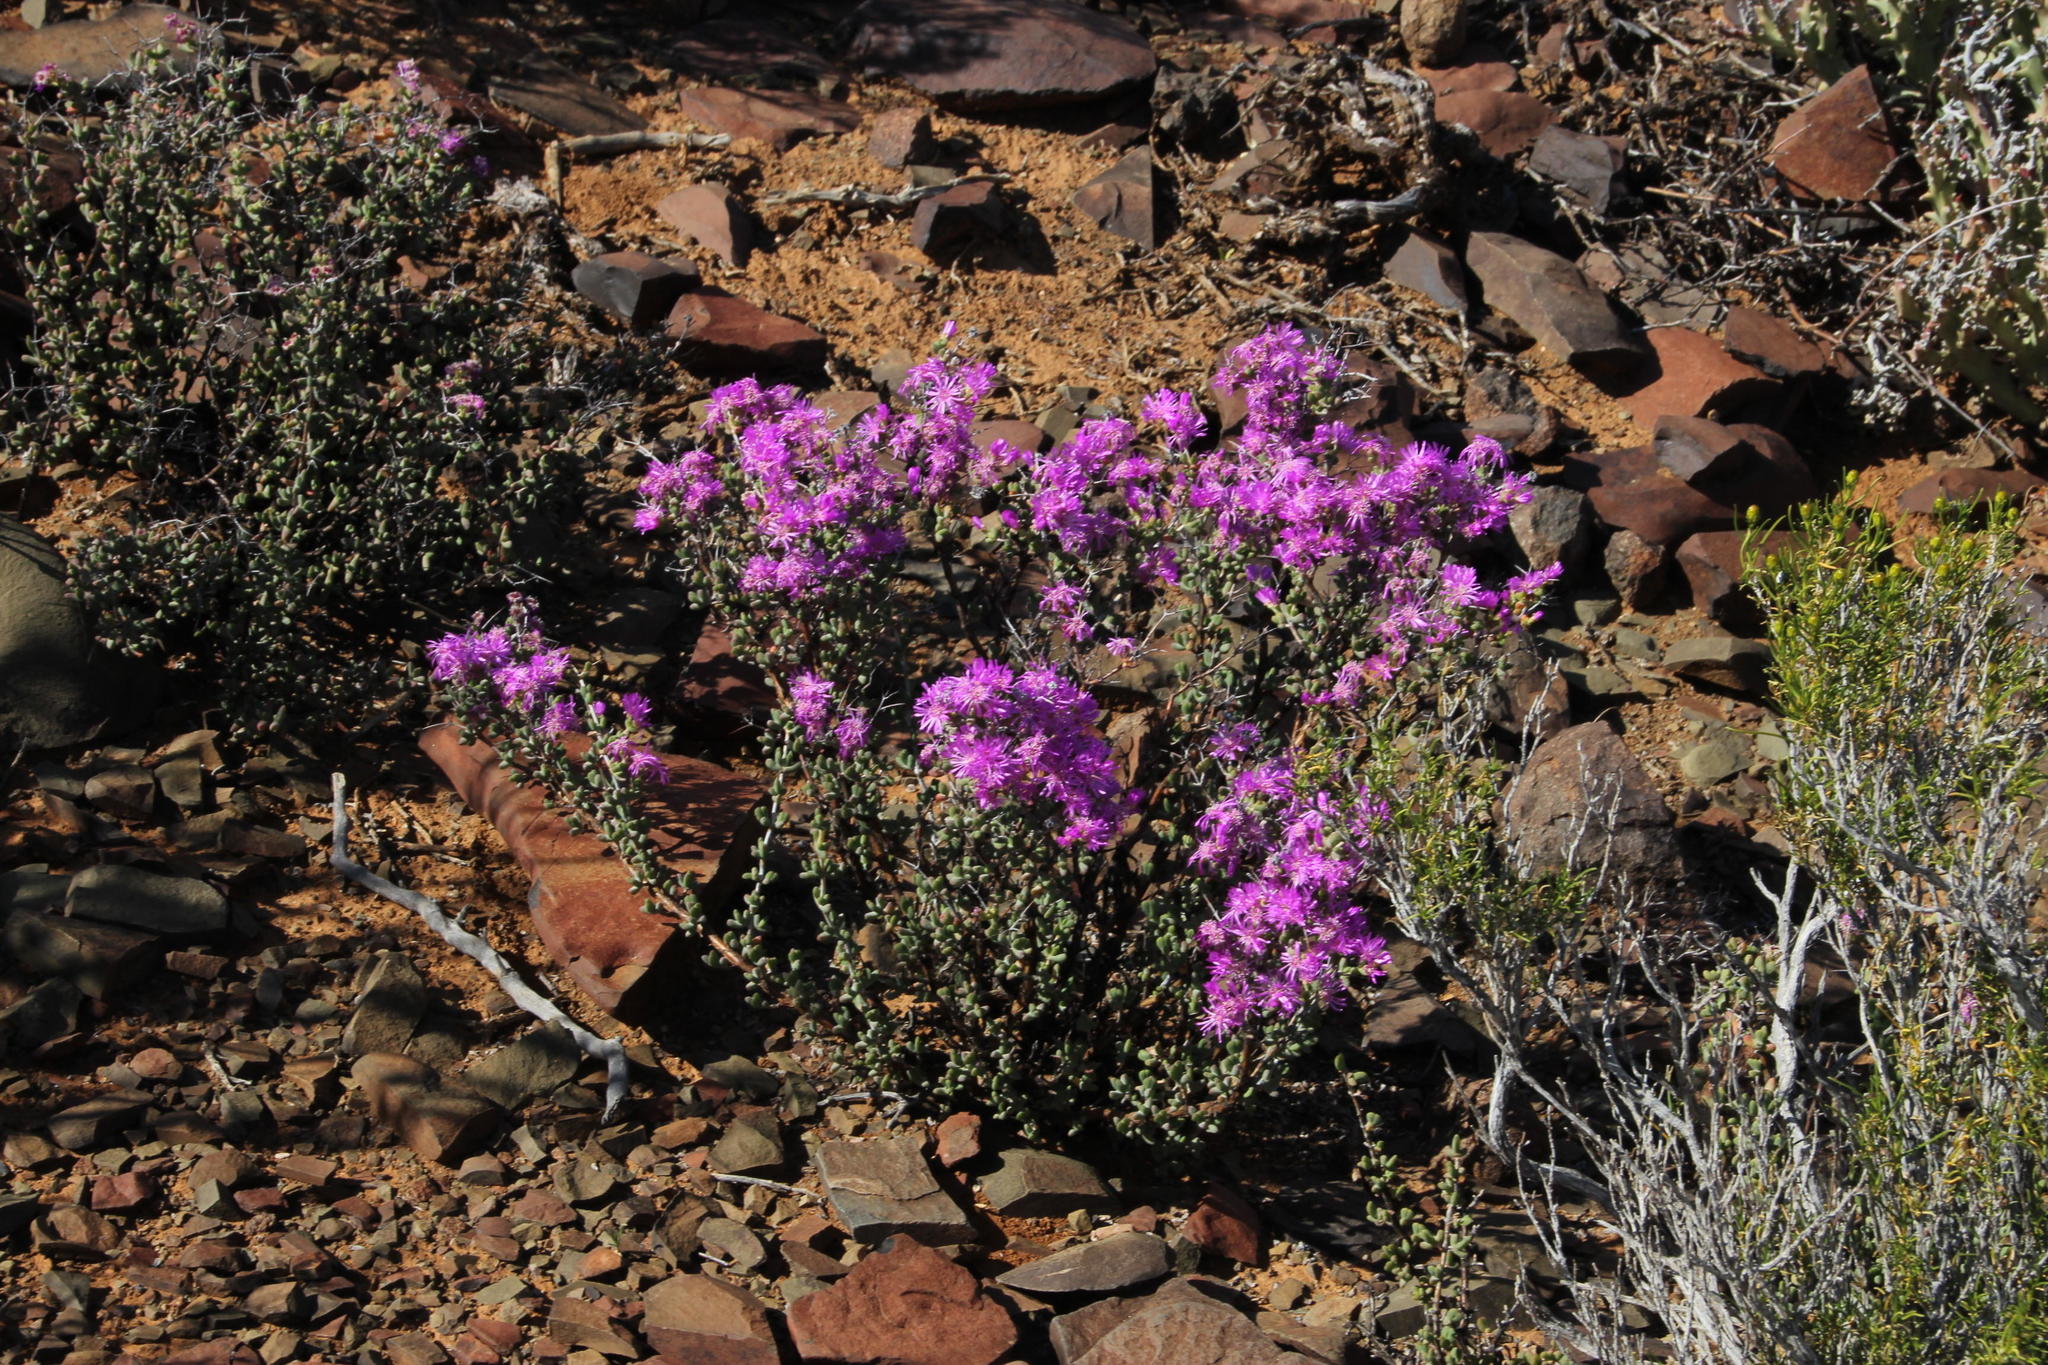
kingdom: Plantae
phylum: Tracheophyta
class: Magnoliopsida
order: Caryophyllales
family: Aizoaceae
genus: Ruschia
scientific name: Ruschia cradockensis
